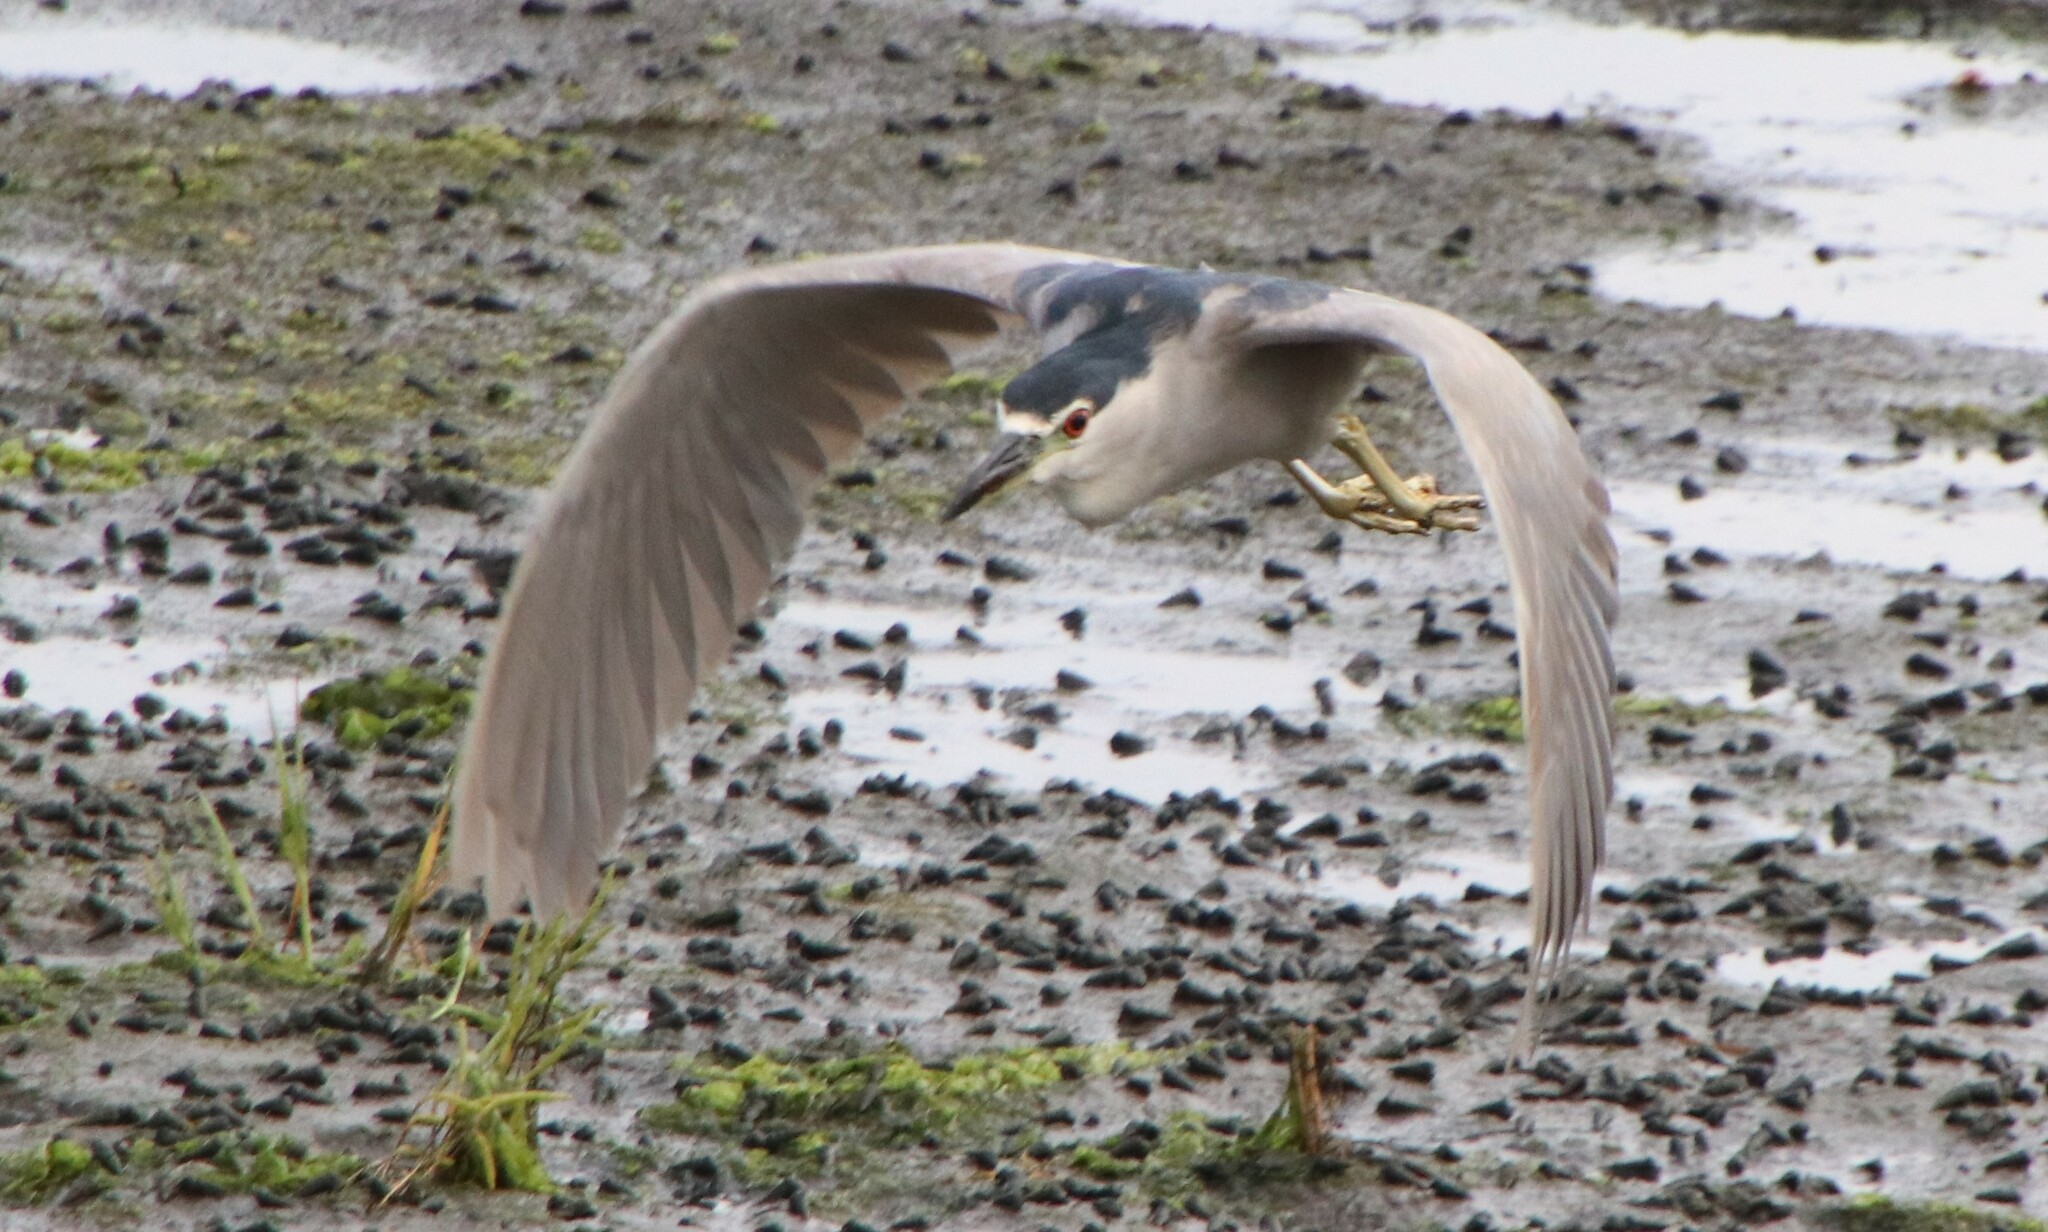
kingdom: Animalia
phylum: Chordata
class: Aves
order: Pelecaniformes
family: Ardeidae
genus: Nycticorax
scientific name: Nycticorax nycticorax
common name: Black-crowned night heron
